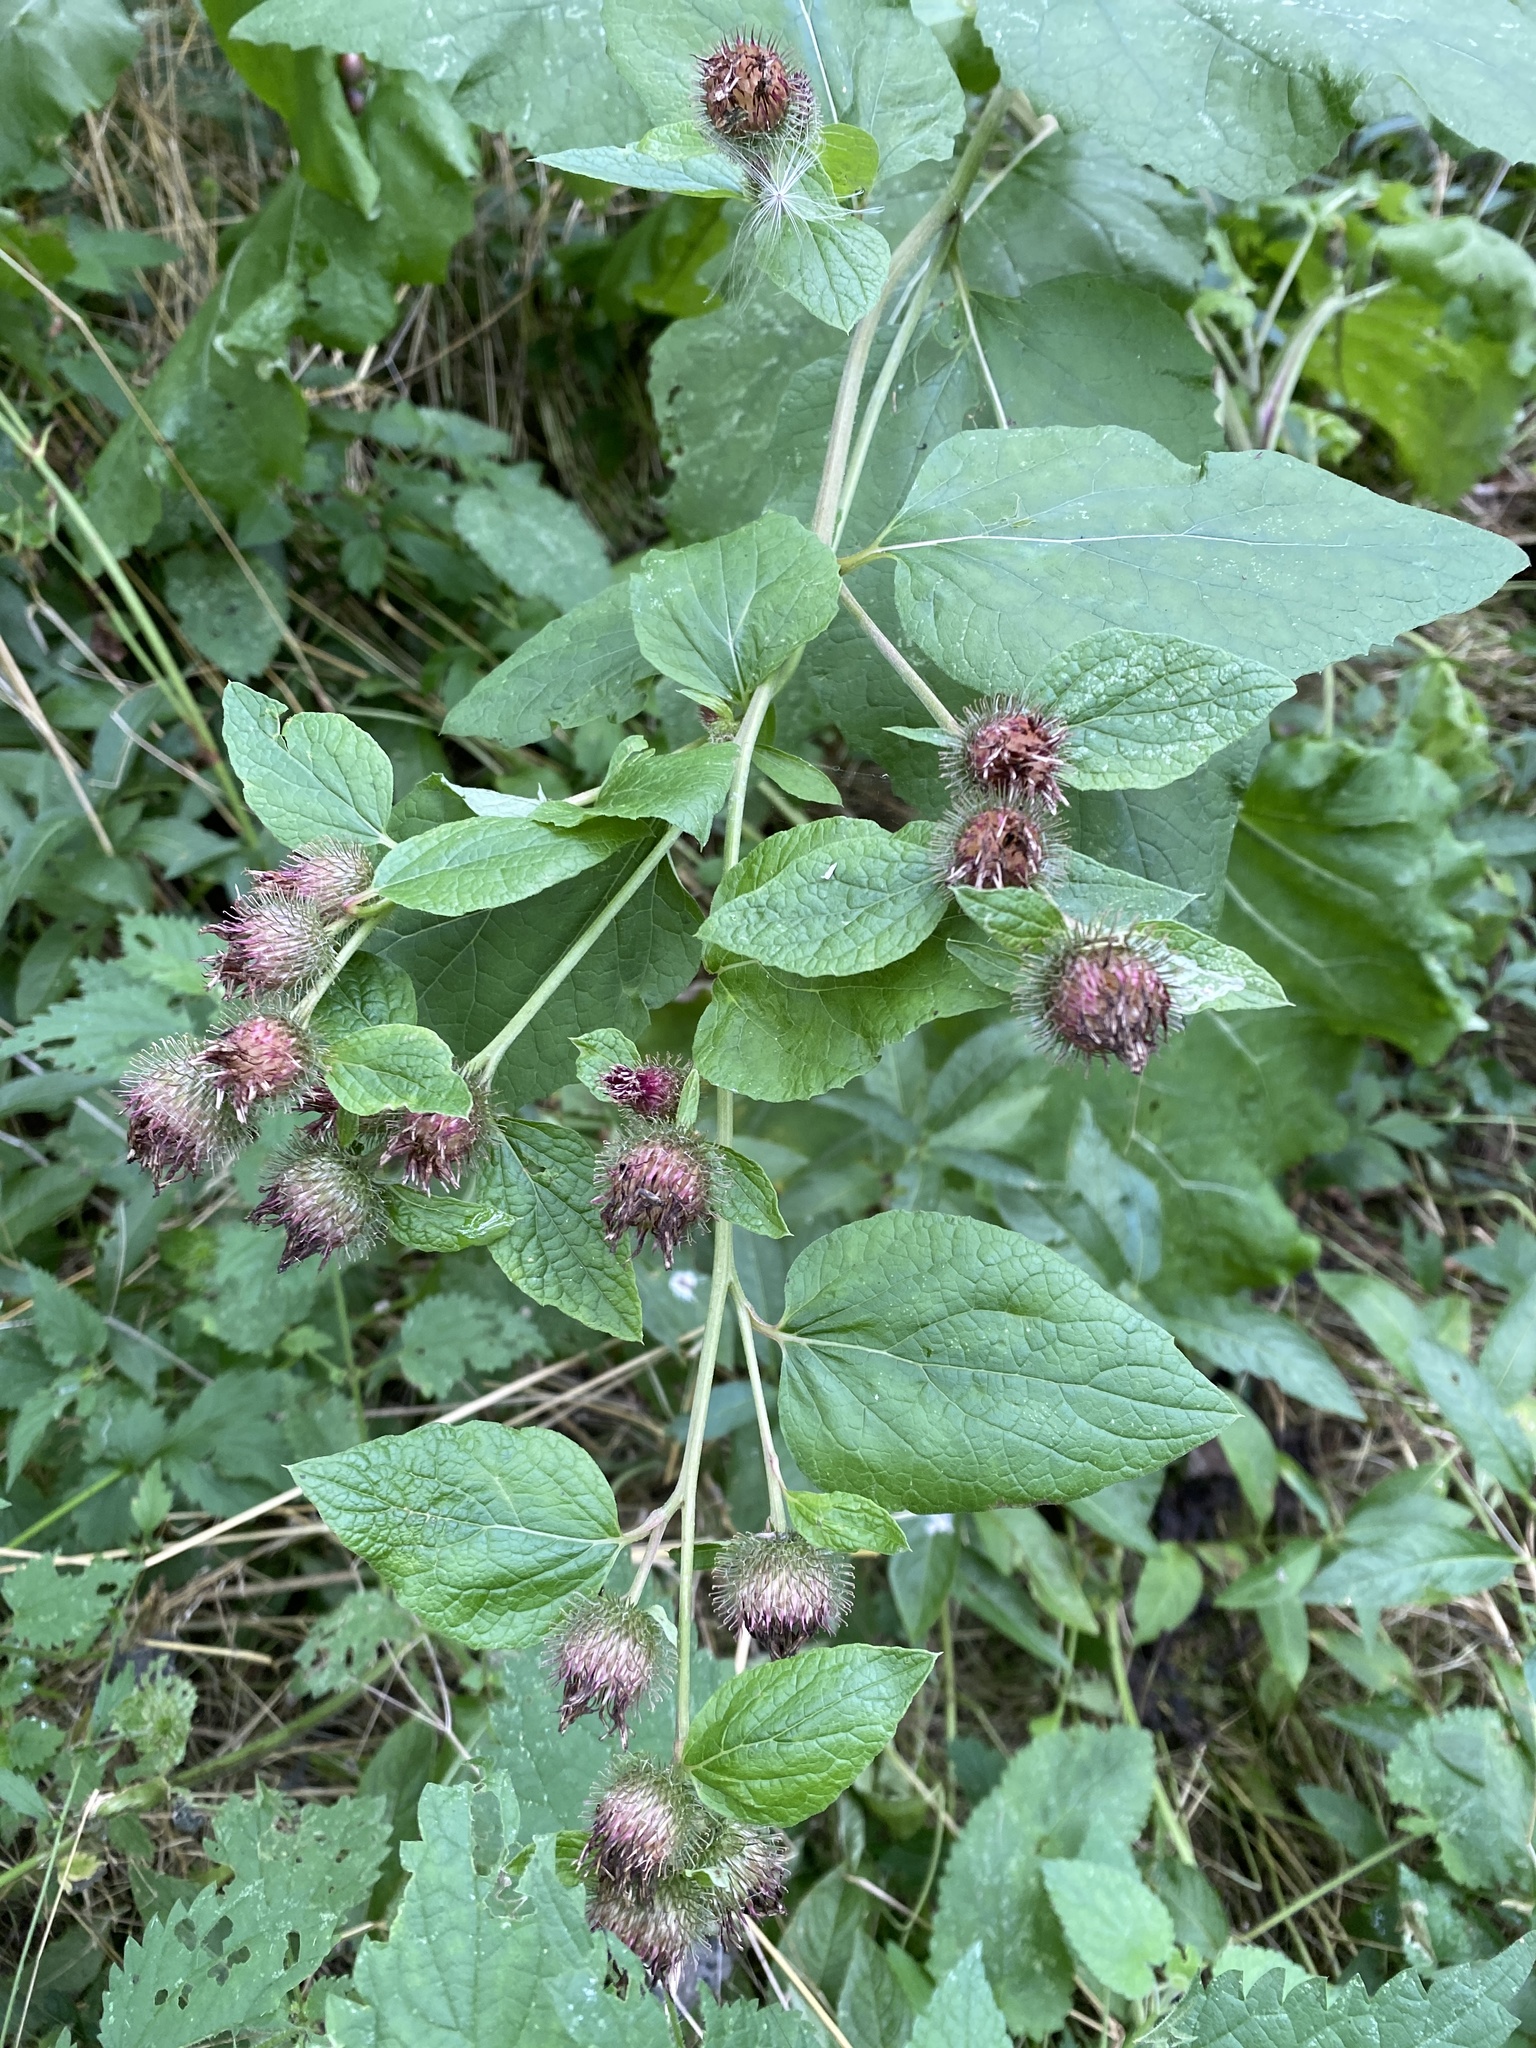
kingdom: Plantae
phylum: Tracheophyta
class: Magnoliopsida
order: Asterales
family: Asteraceae
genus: Arctium
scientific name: Arctium minus
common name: Lesser burdock
